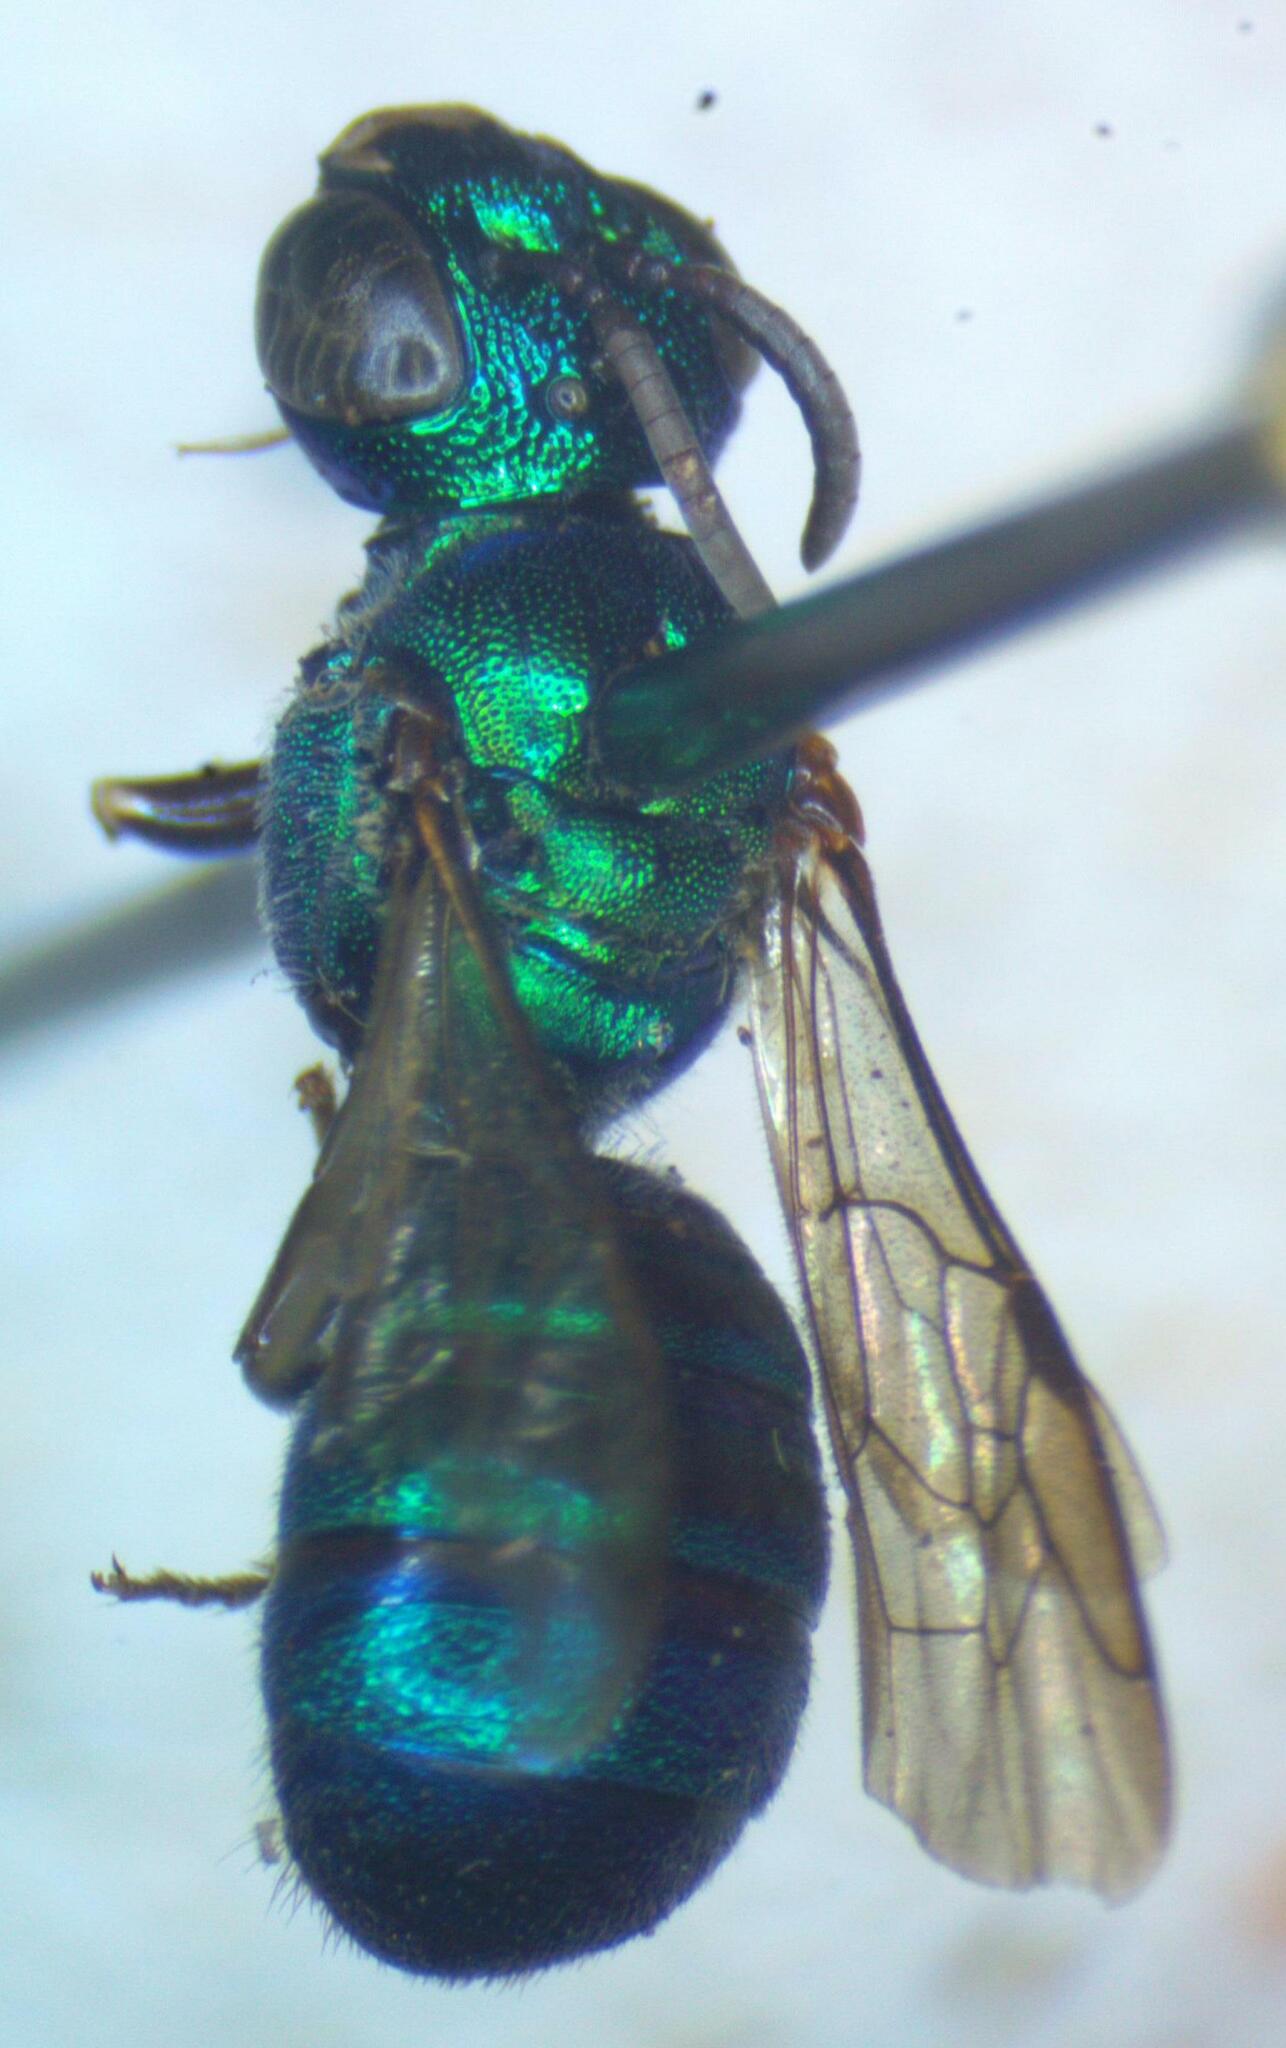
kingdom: Animalia
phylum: Arthropoda
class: Insecta
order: Hymenoptera
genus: Calloceratina
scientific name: Calloceratina
